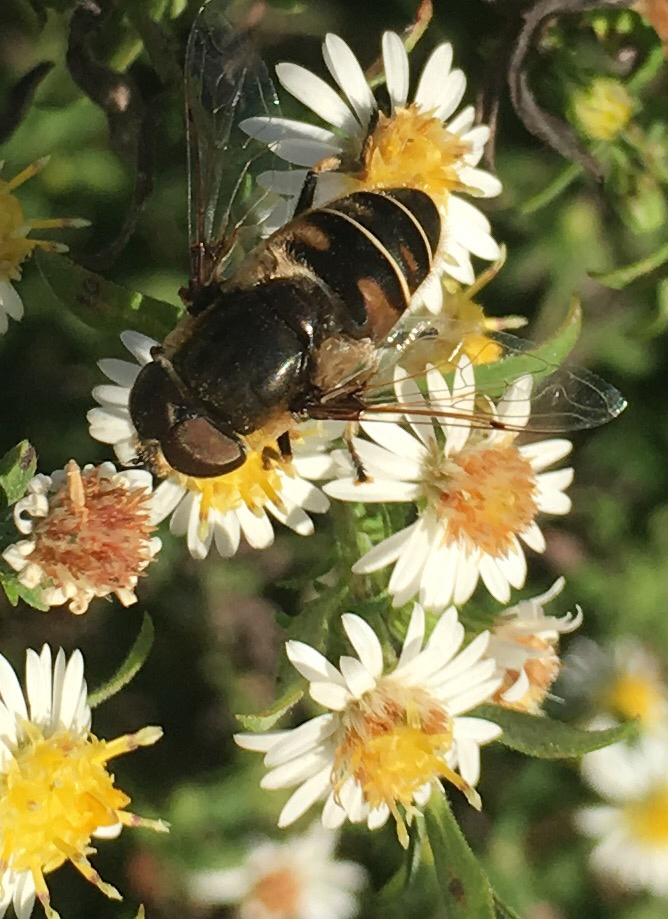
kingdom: Animalia
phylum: Arthropoda
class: Insecta
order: Diptera
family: Syrphidae
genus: Eristalis
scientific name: Eristalis dimidiata
